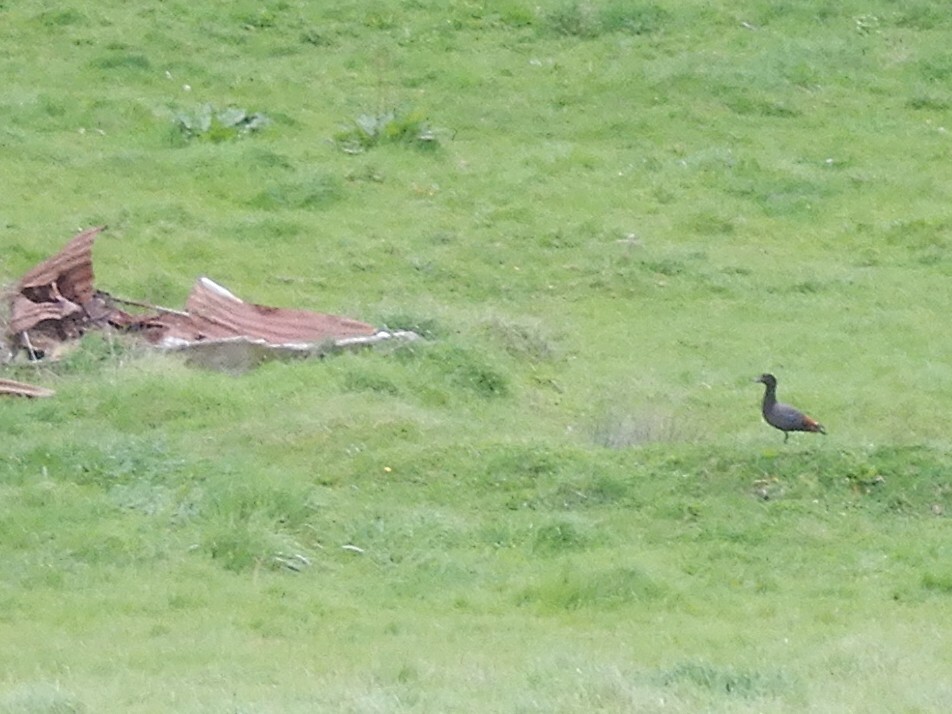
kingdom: Animalia
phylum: Chordata
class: Aves
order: Anseriformes
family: Anatidae
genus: Tadorna
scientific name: Tadorna variegata
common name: Paradise shelduck
